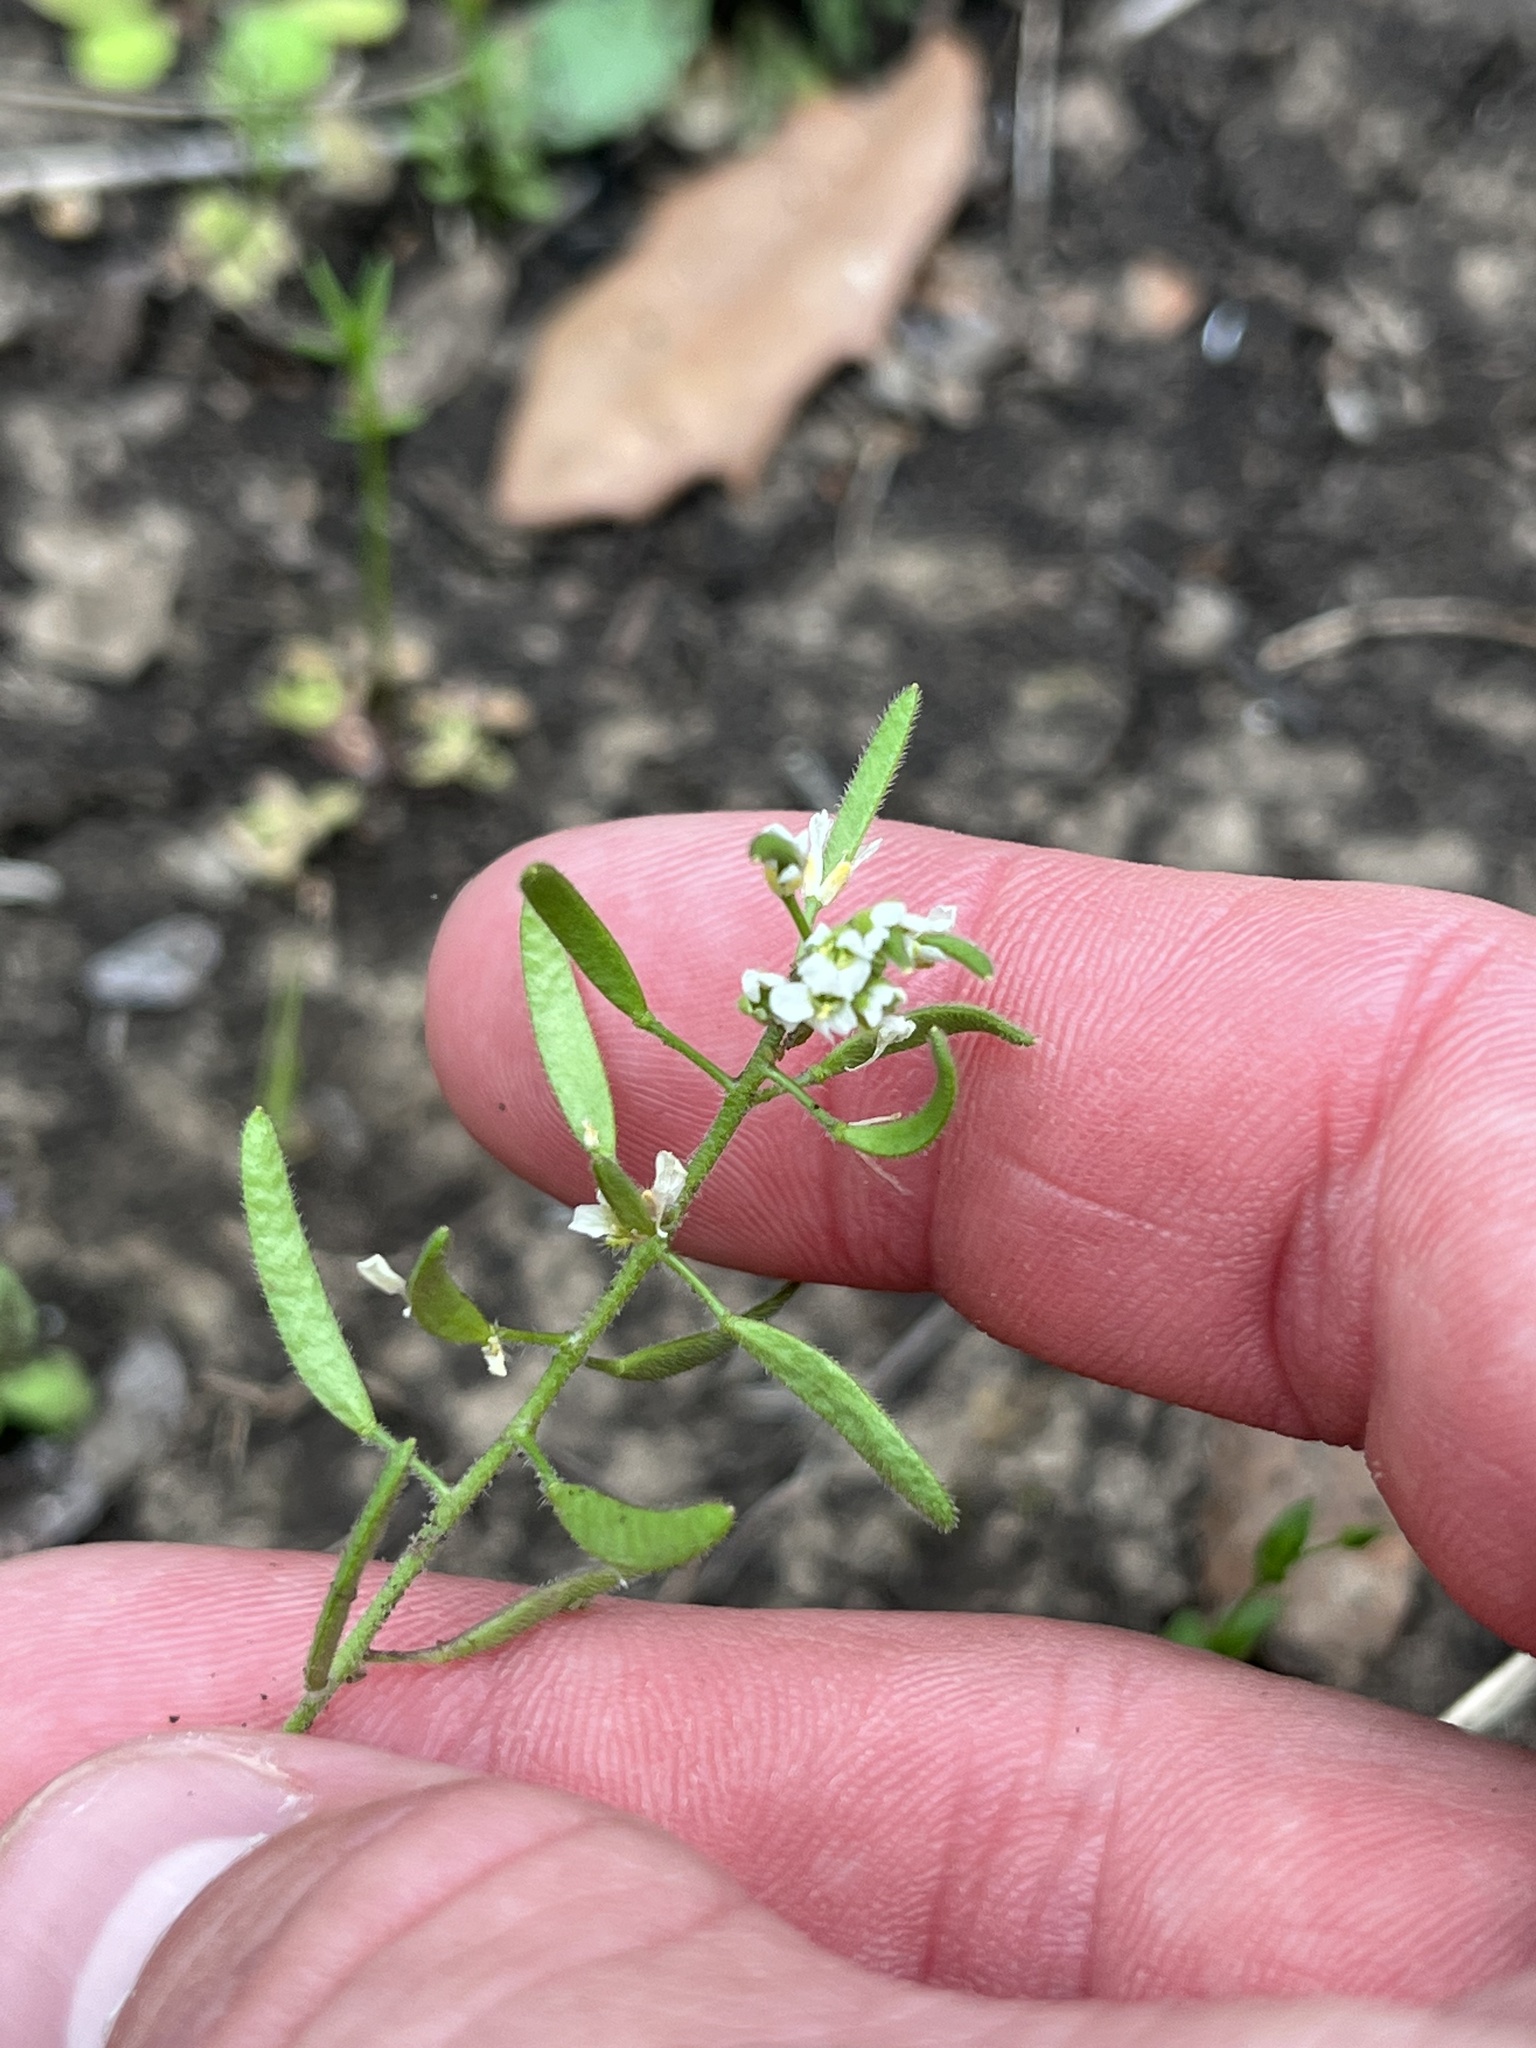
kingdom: Plantae
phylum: Tracheophyta
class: Magnoliopsida
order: Brassicales
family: Brassicaceae
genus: Tomostima
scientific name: Tomostima cuneifolia
